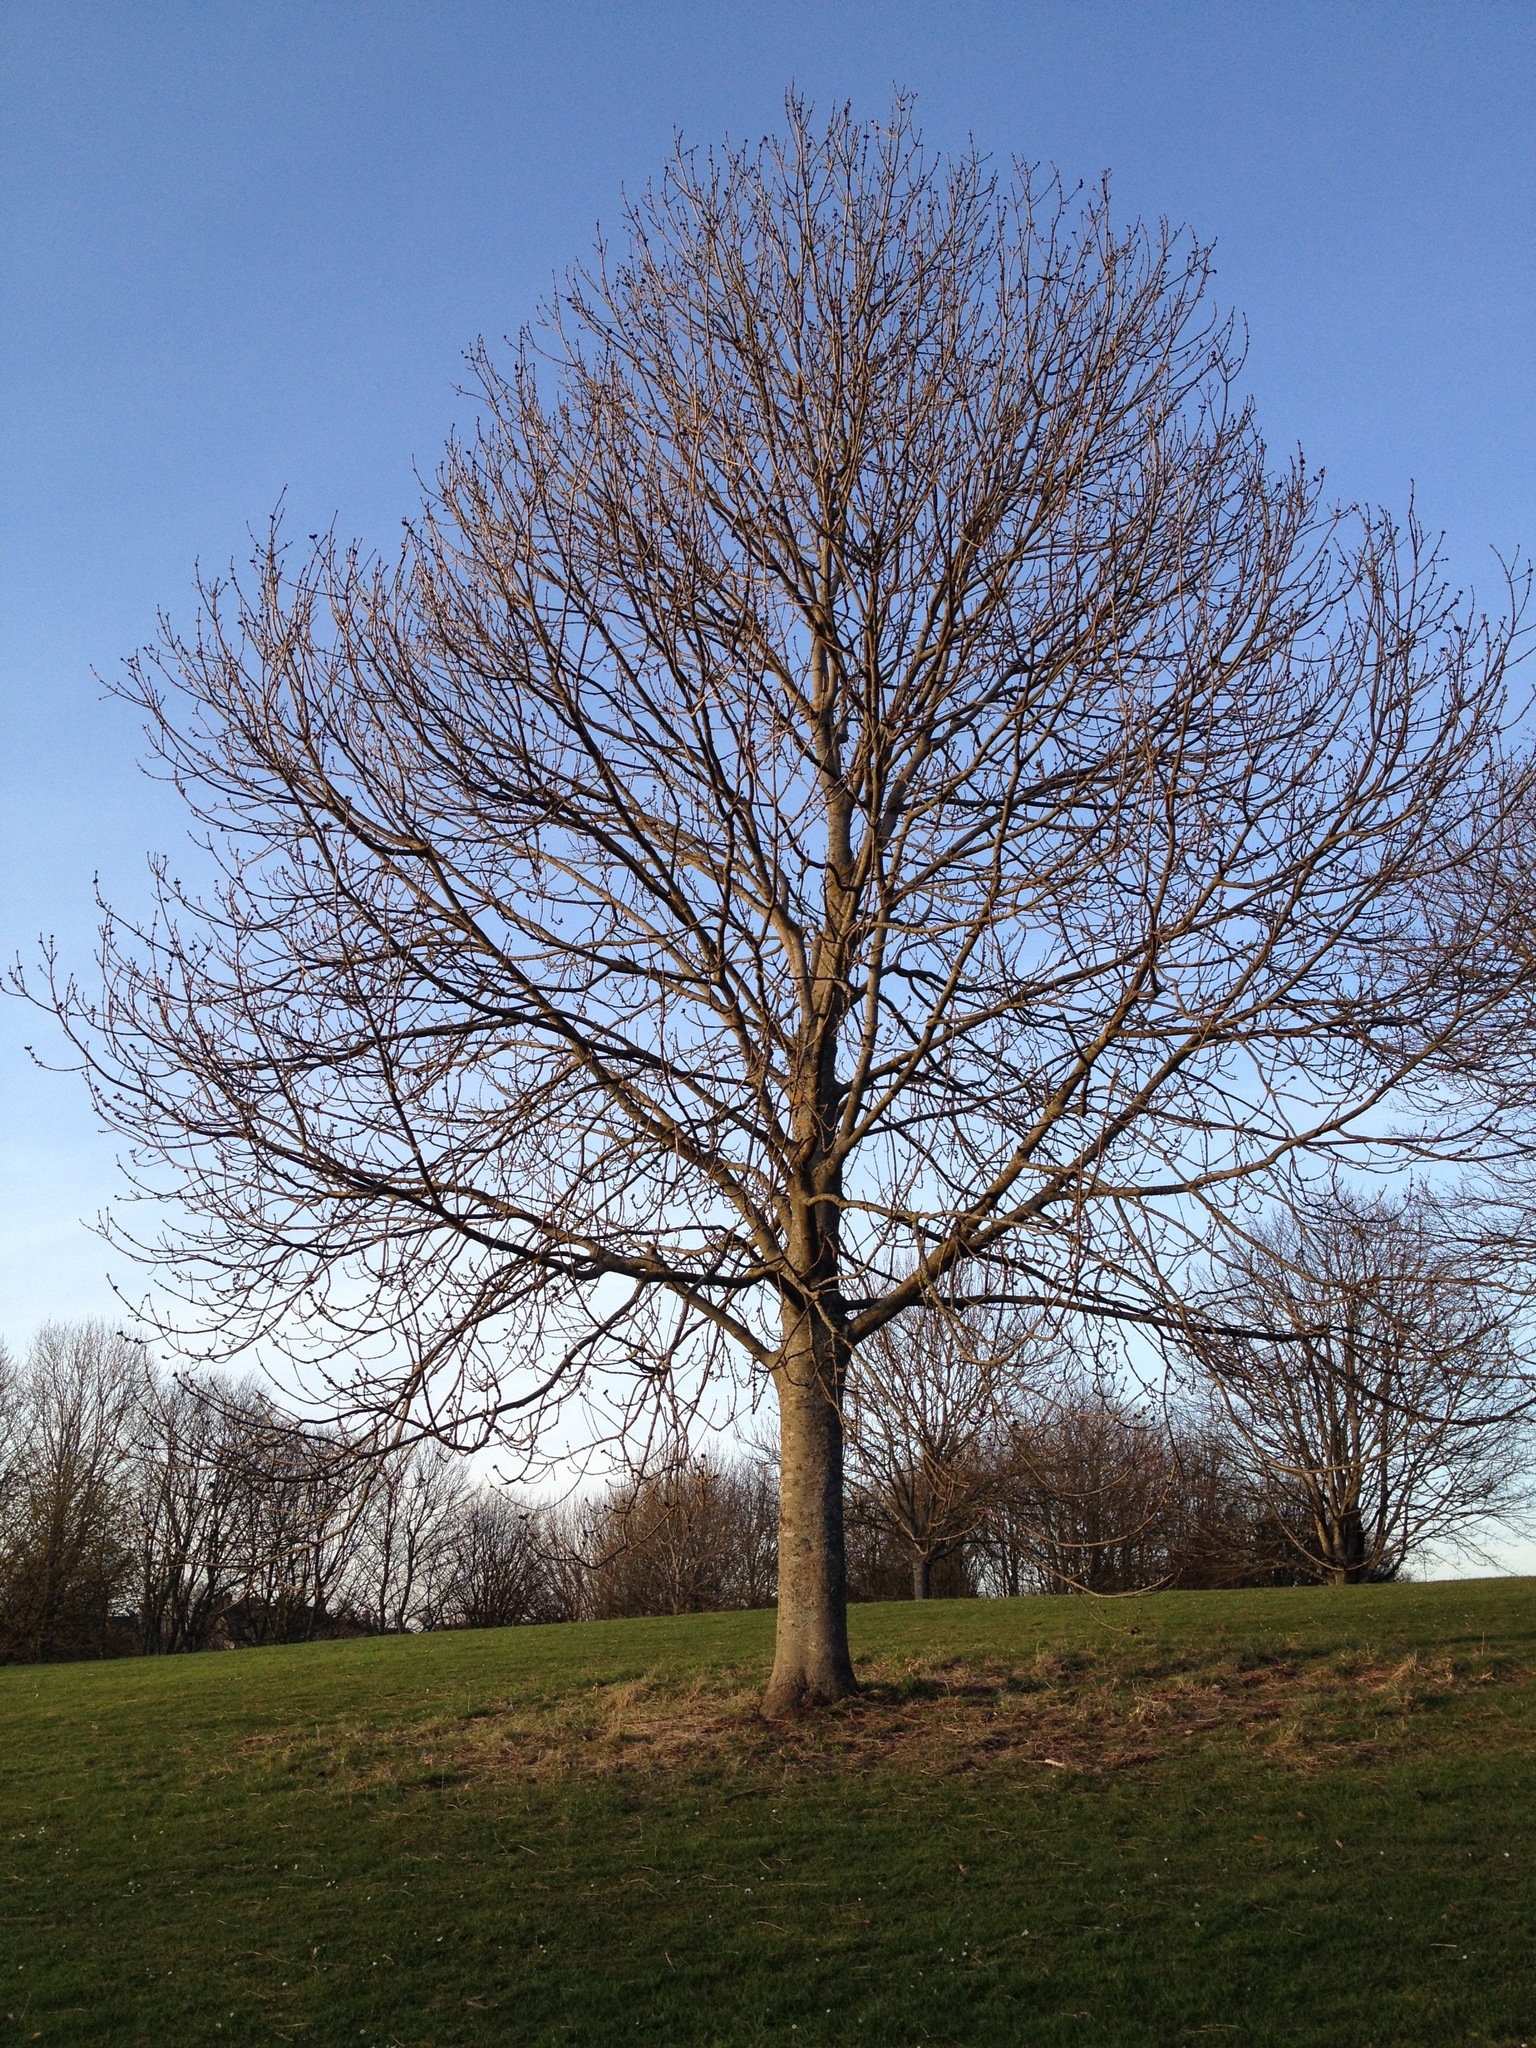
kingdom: Plantae
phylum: Tracheophyta
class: Magnoliopsida
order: Lamiales
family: Oleaceae
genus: Fraxinus
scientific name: Fraxinus excelsior
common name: European ash
